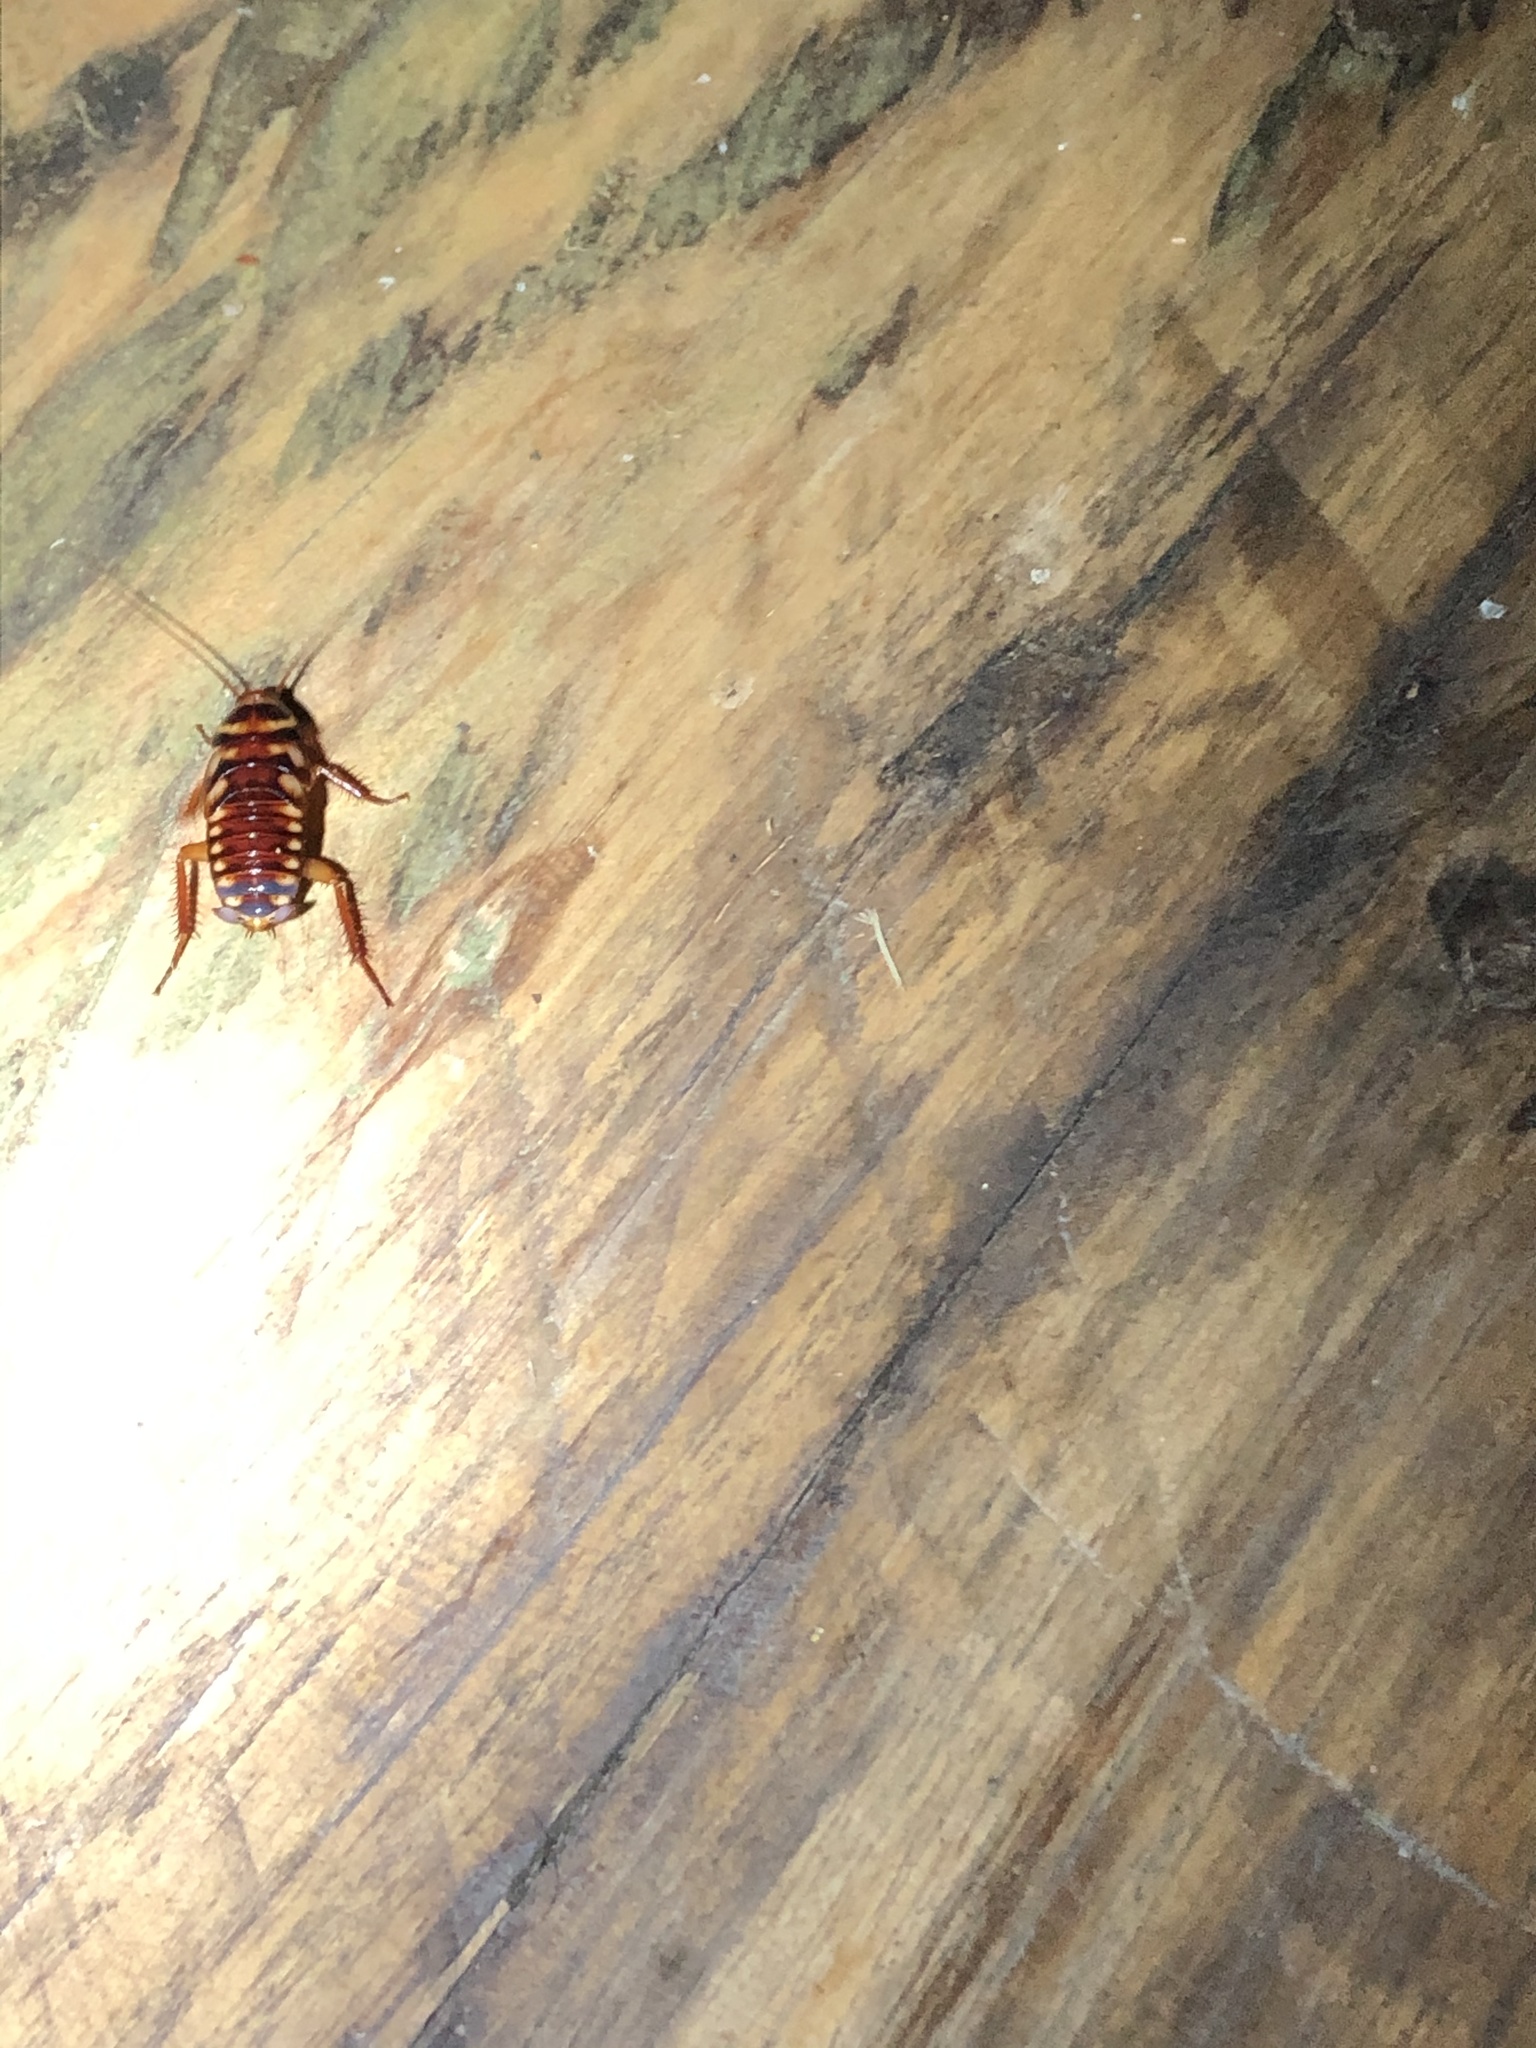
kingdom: Animalia
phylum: Arthropoda
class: Insecta
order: Blattodea
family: Blattidae
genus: Periplaneta
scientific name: Periplaneta australasiae
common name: Australian cockroach
